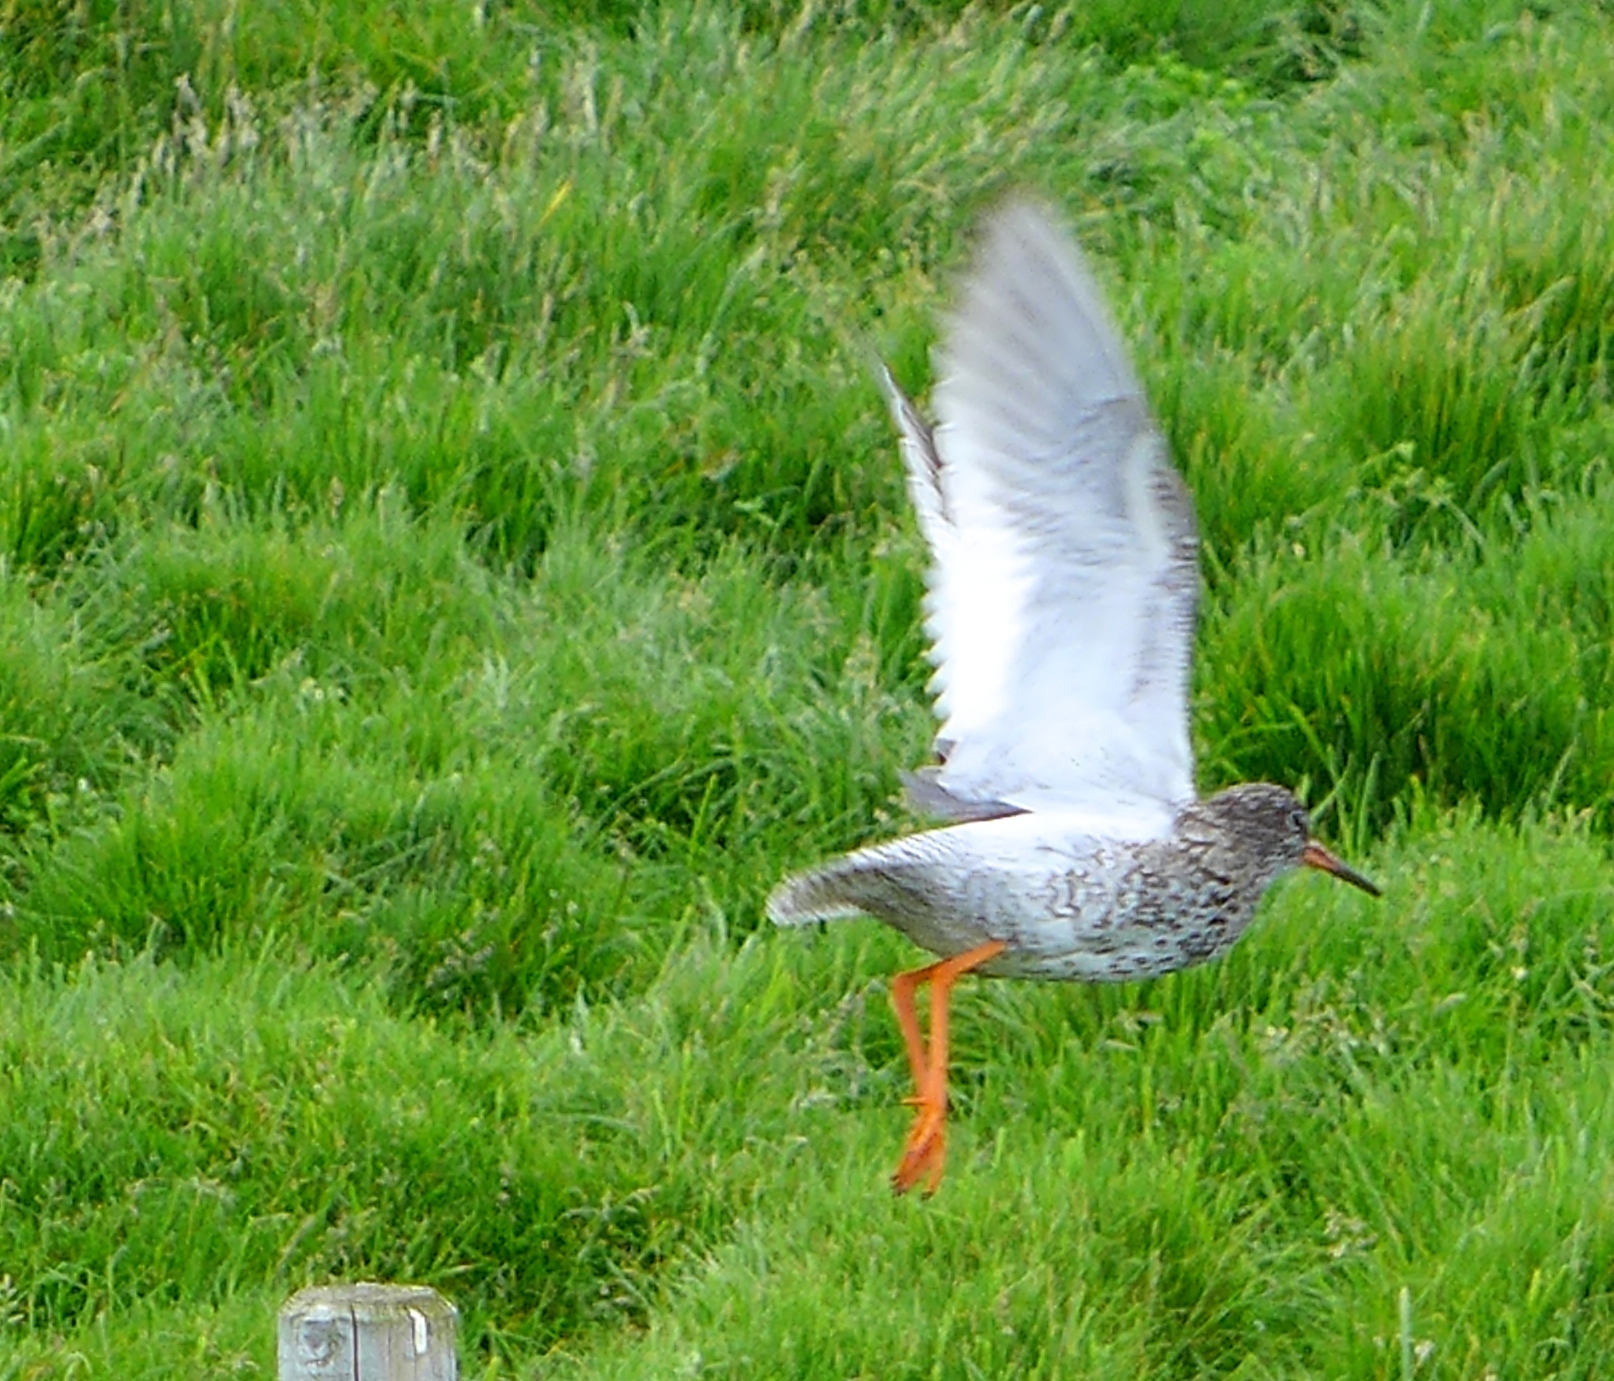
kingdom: Animalia
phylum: Chordata
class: Aves
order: Charadriiformes
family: Scolopacidae
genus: Tringa
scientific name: Tringa totanus
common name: Common redshank
